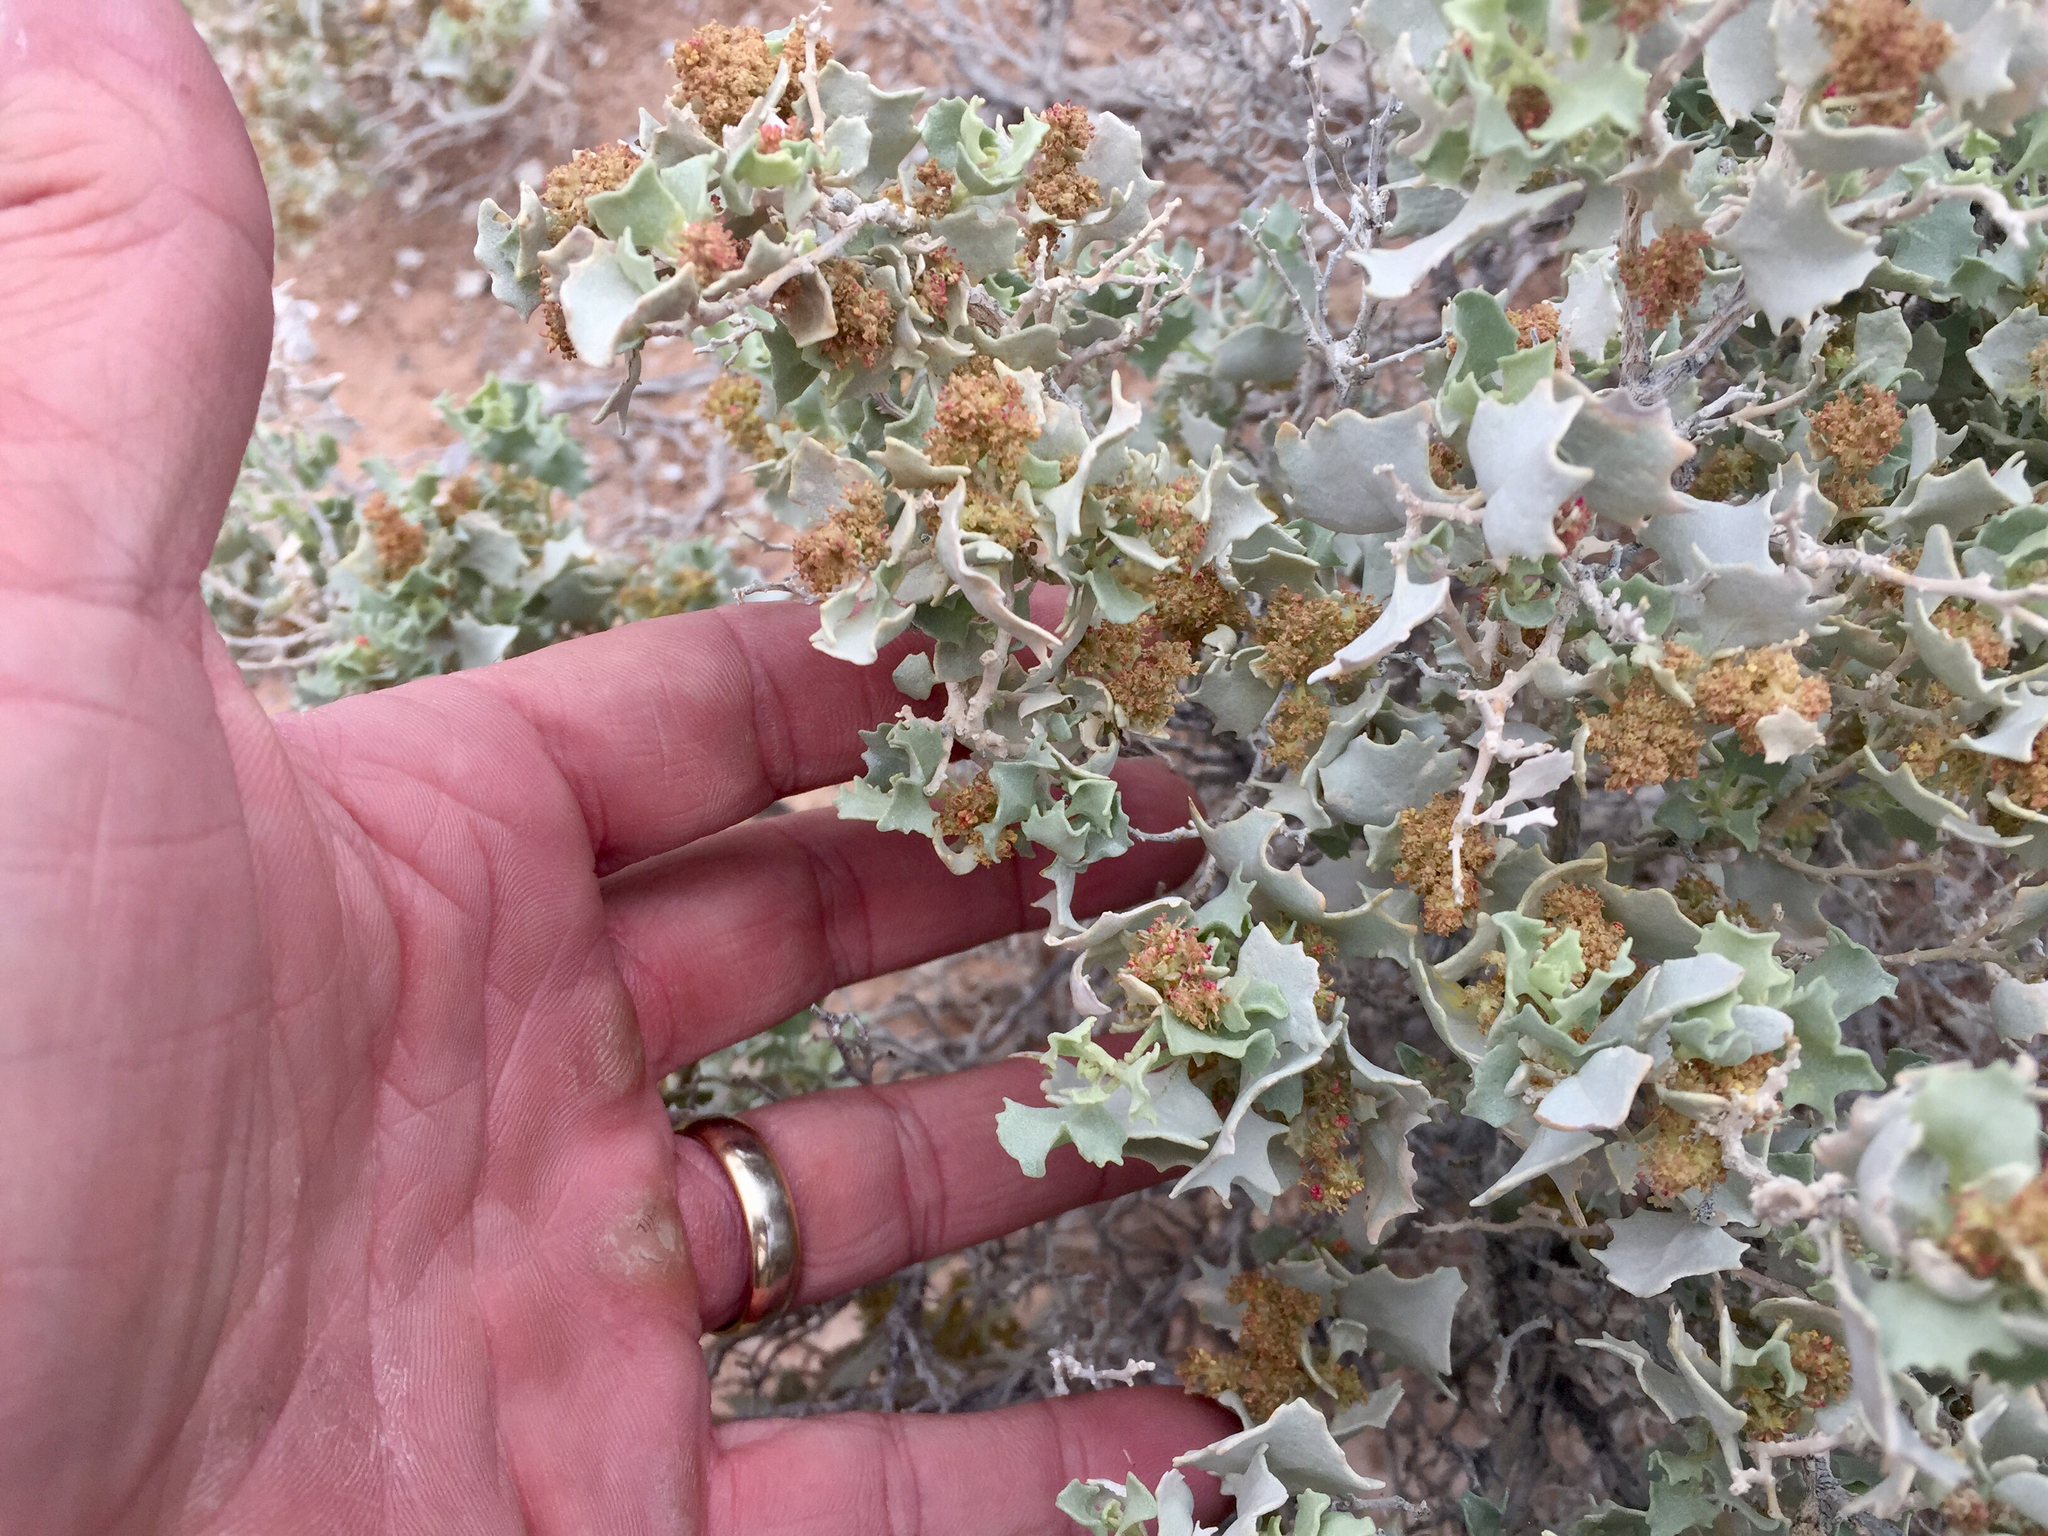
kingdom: Plantae
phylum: Tracheophyta
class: Magnoliopsida
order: Caryophyllales
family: Amaranthaceae
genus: Atriplex
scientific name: Atriplex hymenelytra
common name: Desert-holly
